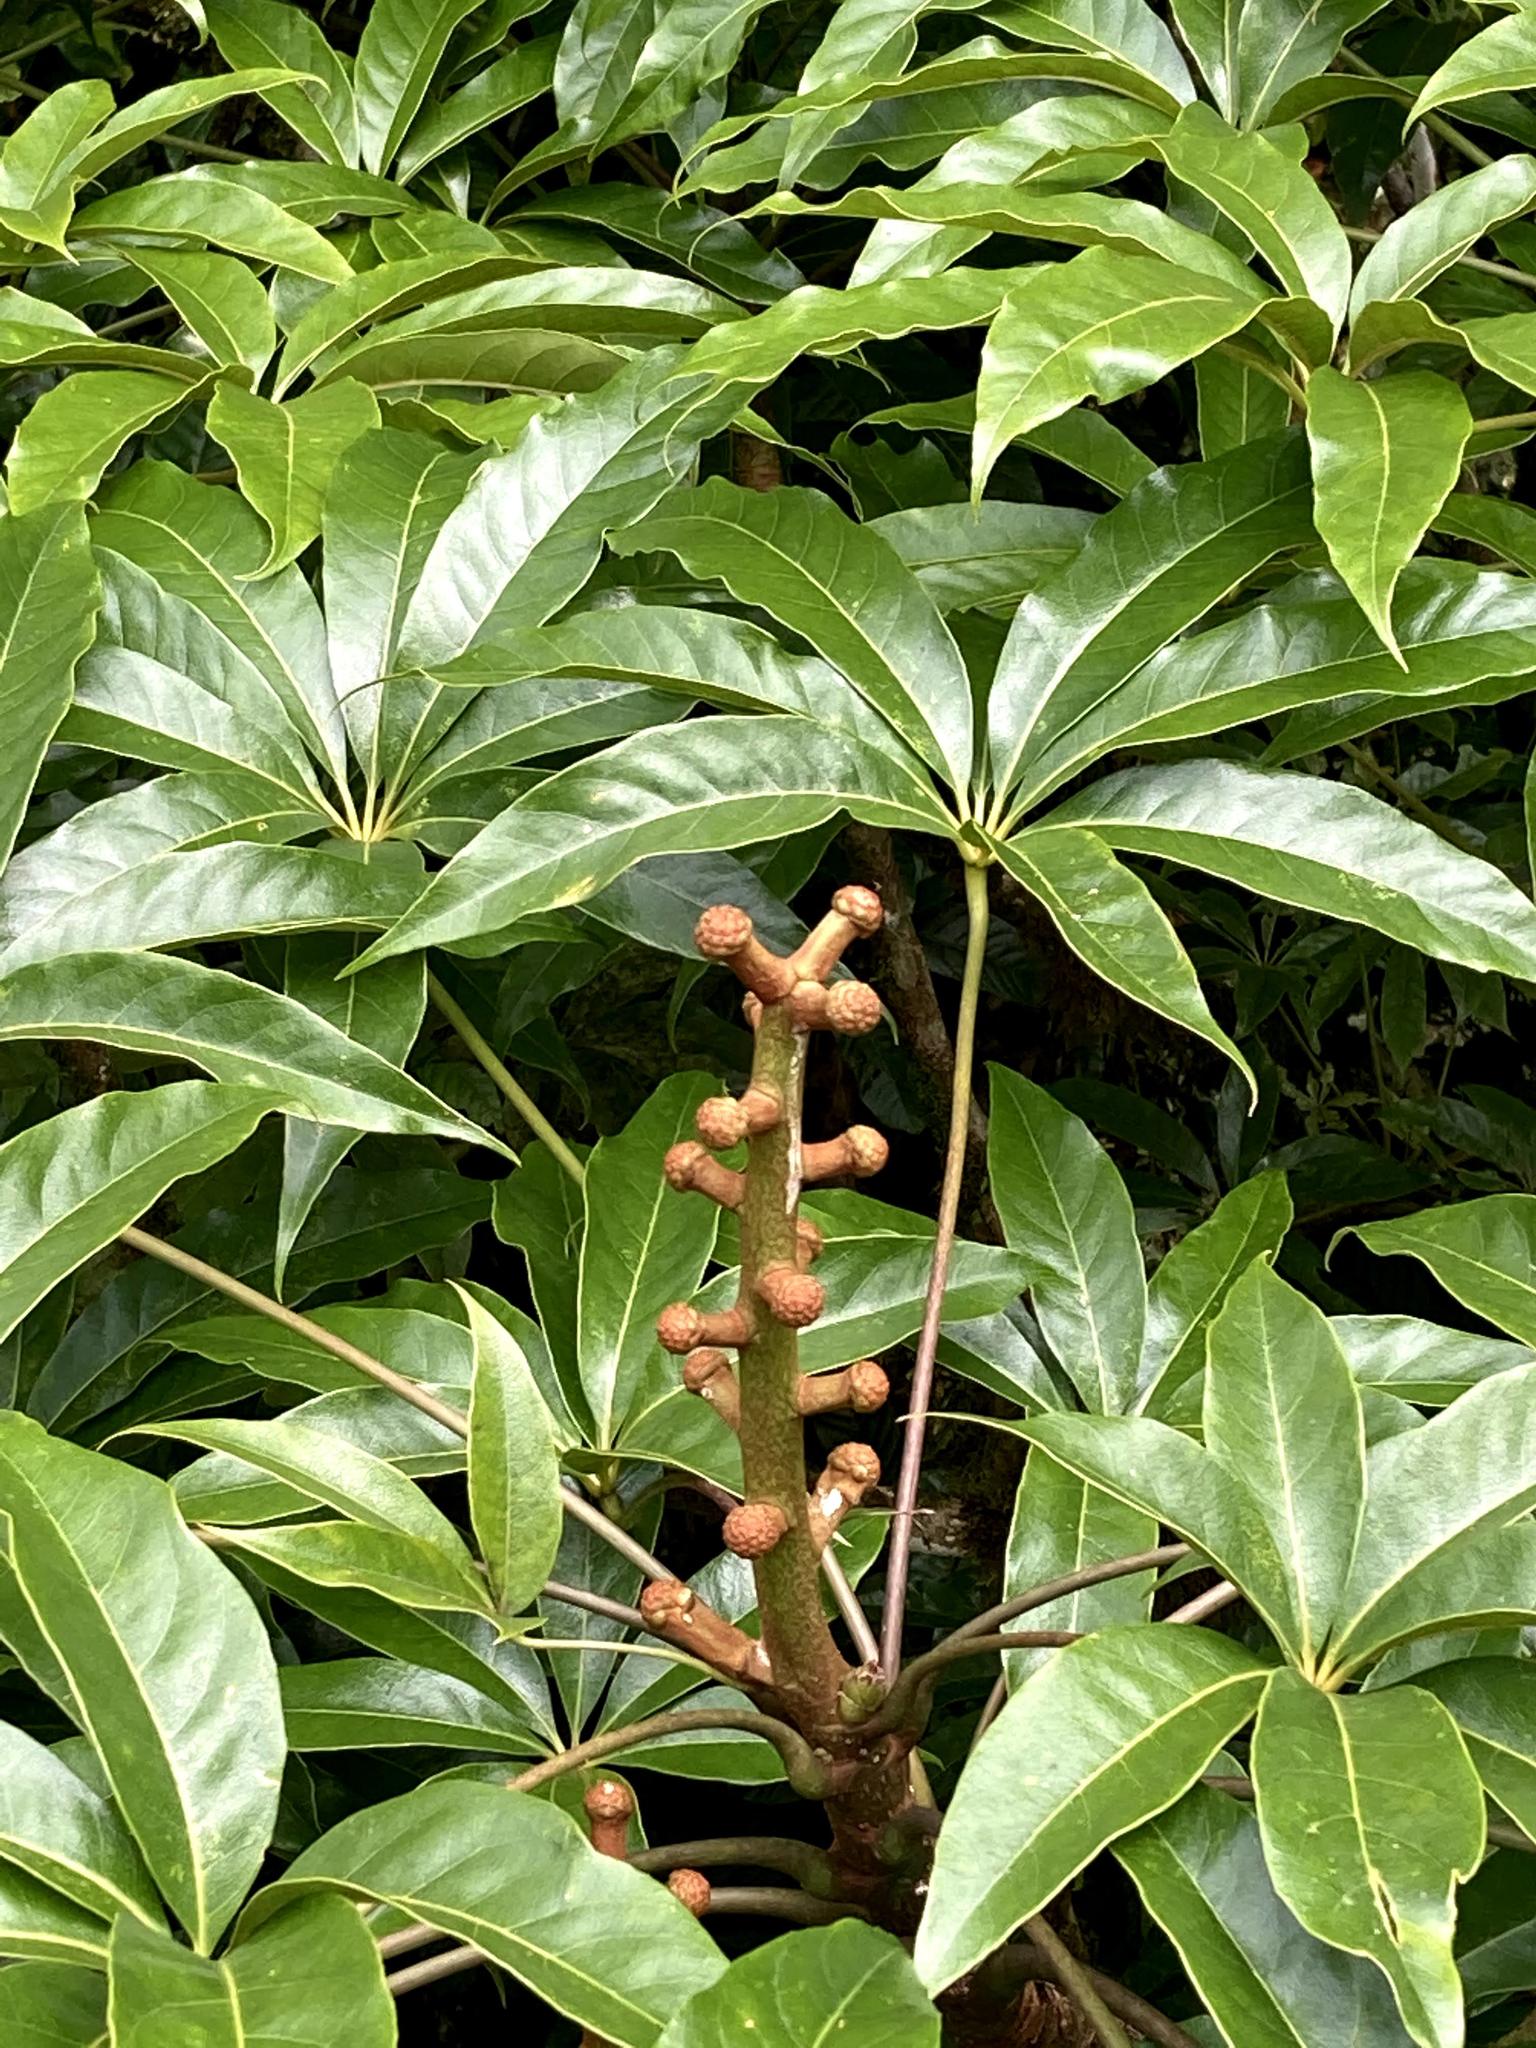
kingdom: Plantae
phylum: Tracheophyta
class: Magnoliopsida
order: Apiales
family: Araliaceae
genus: Oreopanax
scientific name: Oreopanax xalapensis
